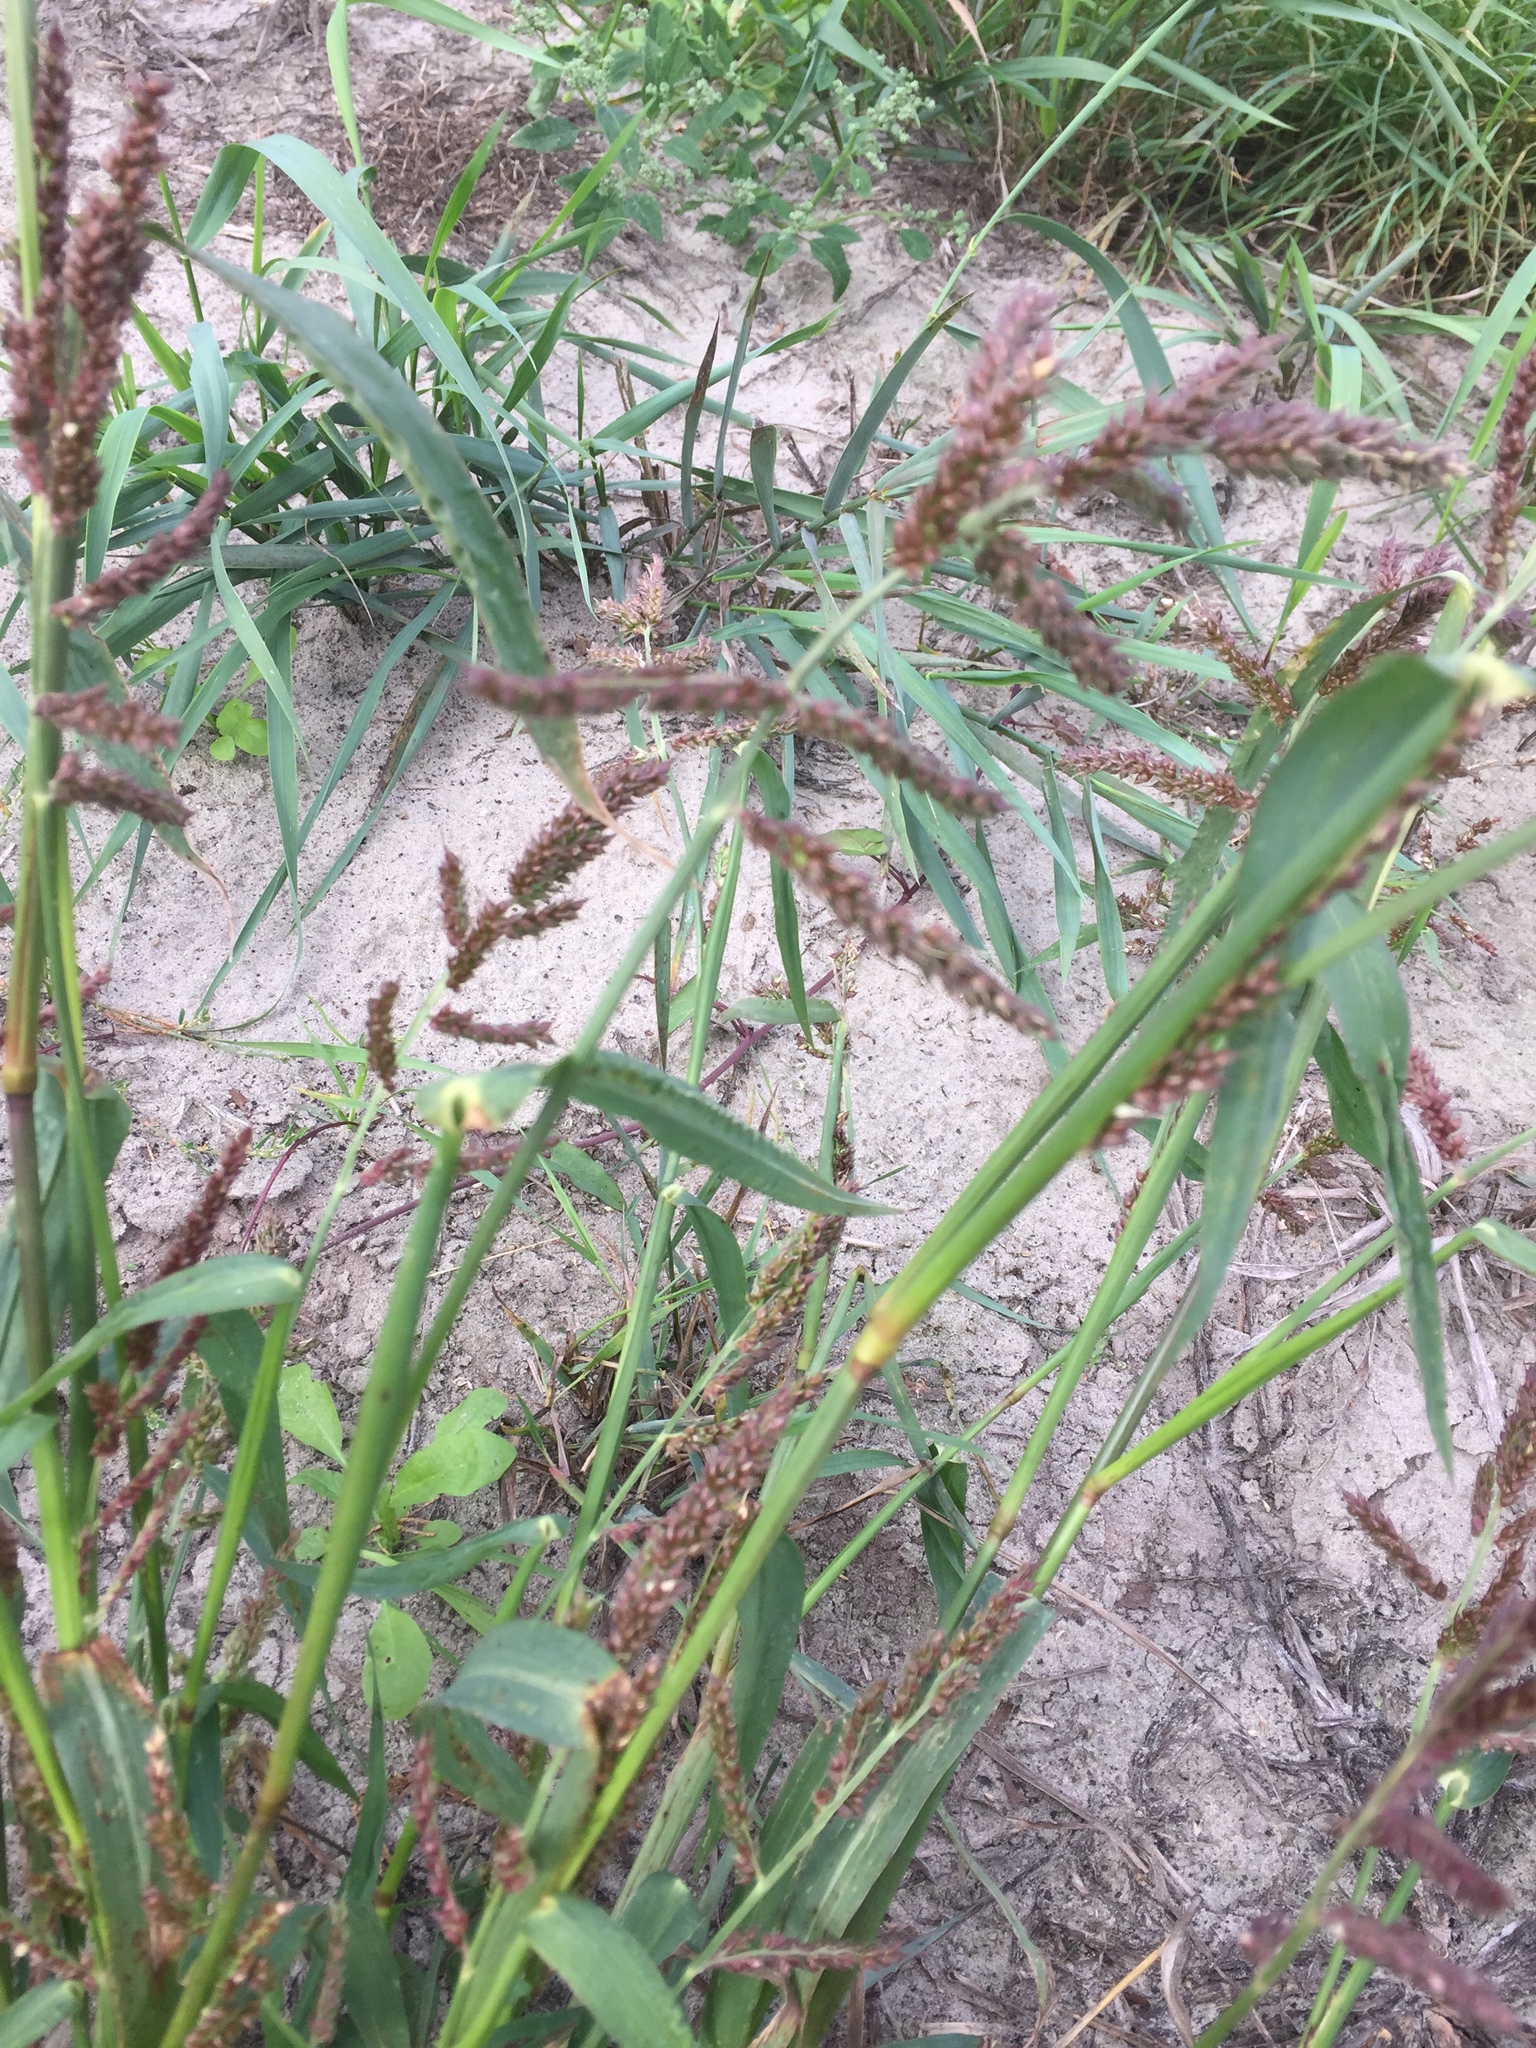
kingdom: Plantae
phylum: Tracheophyta
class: Liliopsida
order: Poales
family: Poaceae
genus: Echinochloa
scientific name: Echinochloa crus-galli
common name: Cockspur
